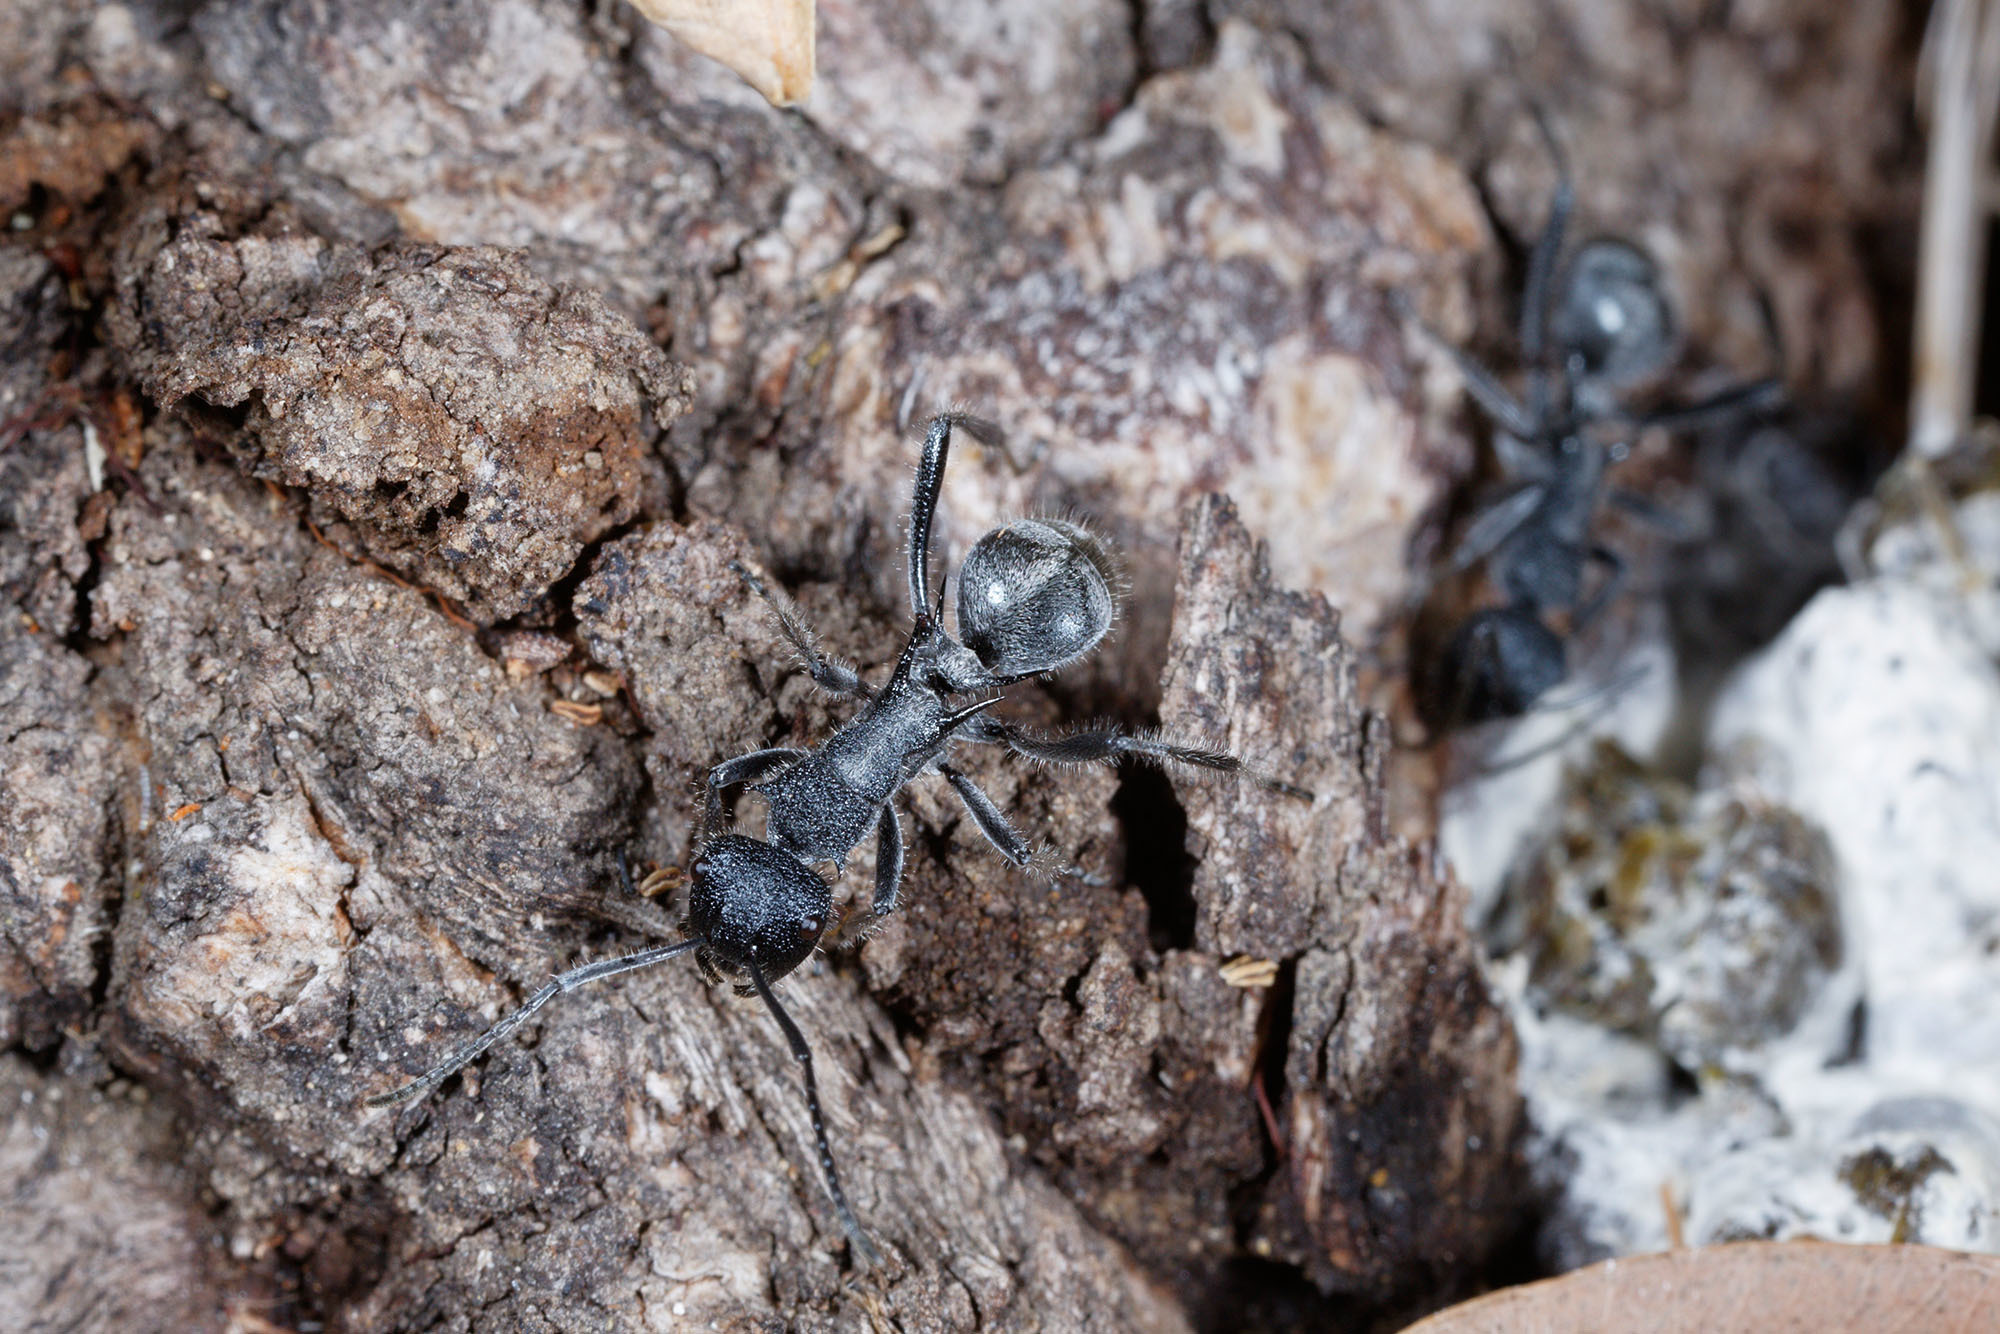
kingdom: Animalia
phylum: Arthropoda
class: Insecta
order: Hymenoptera
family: Formicidae
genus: Polyrhachis
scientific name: Polyrhachis clotho
